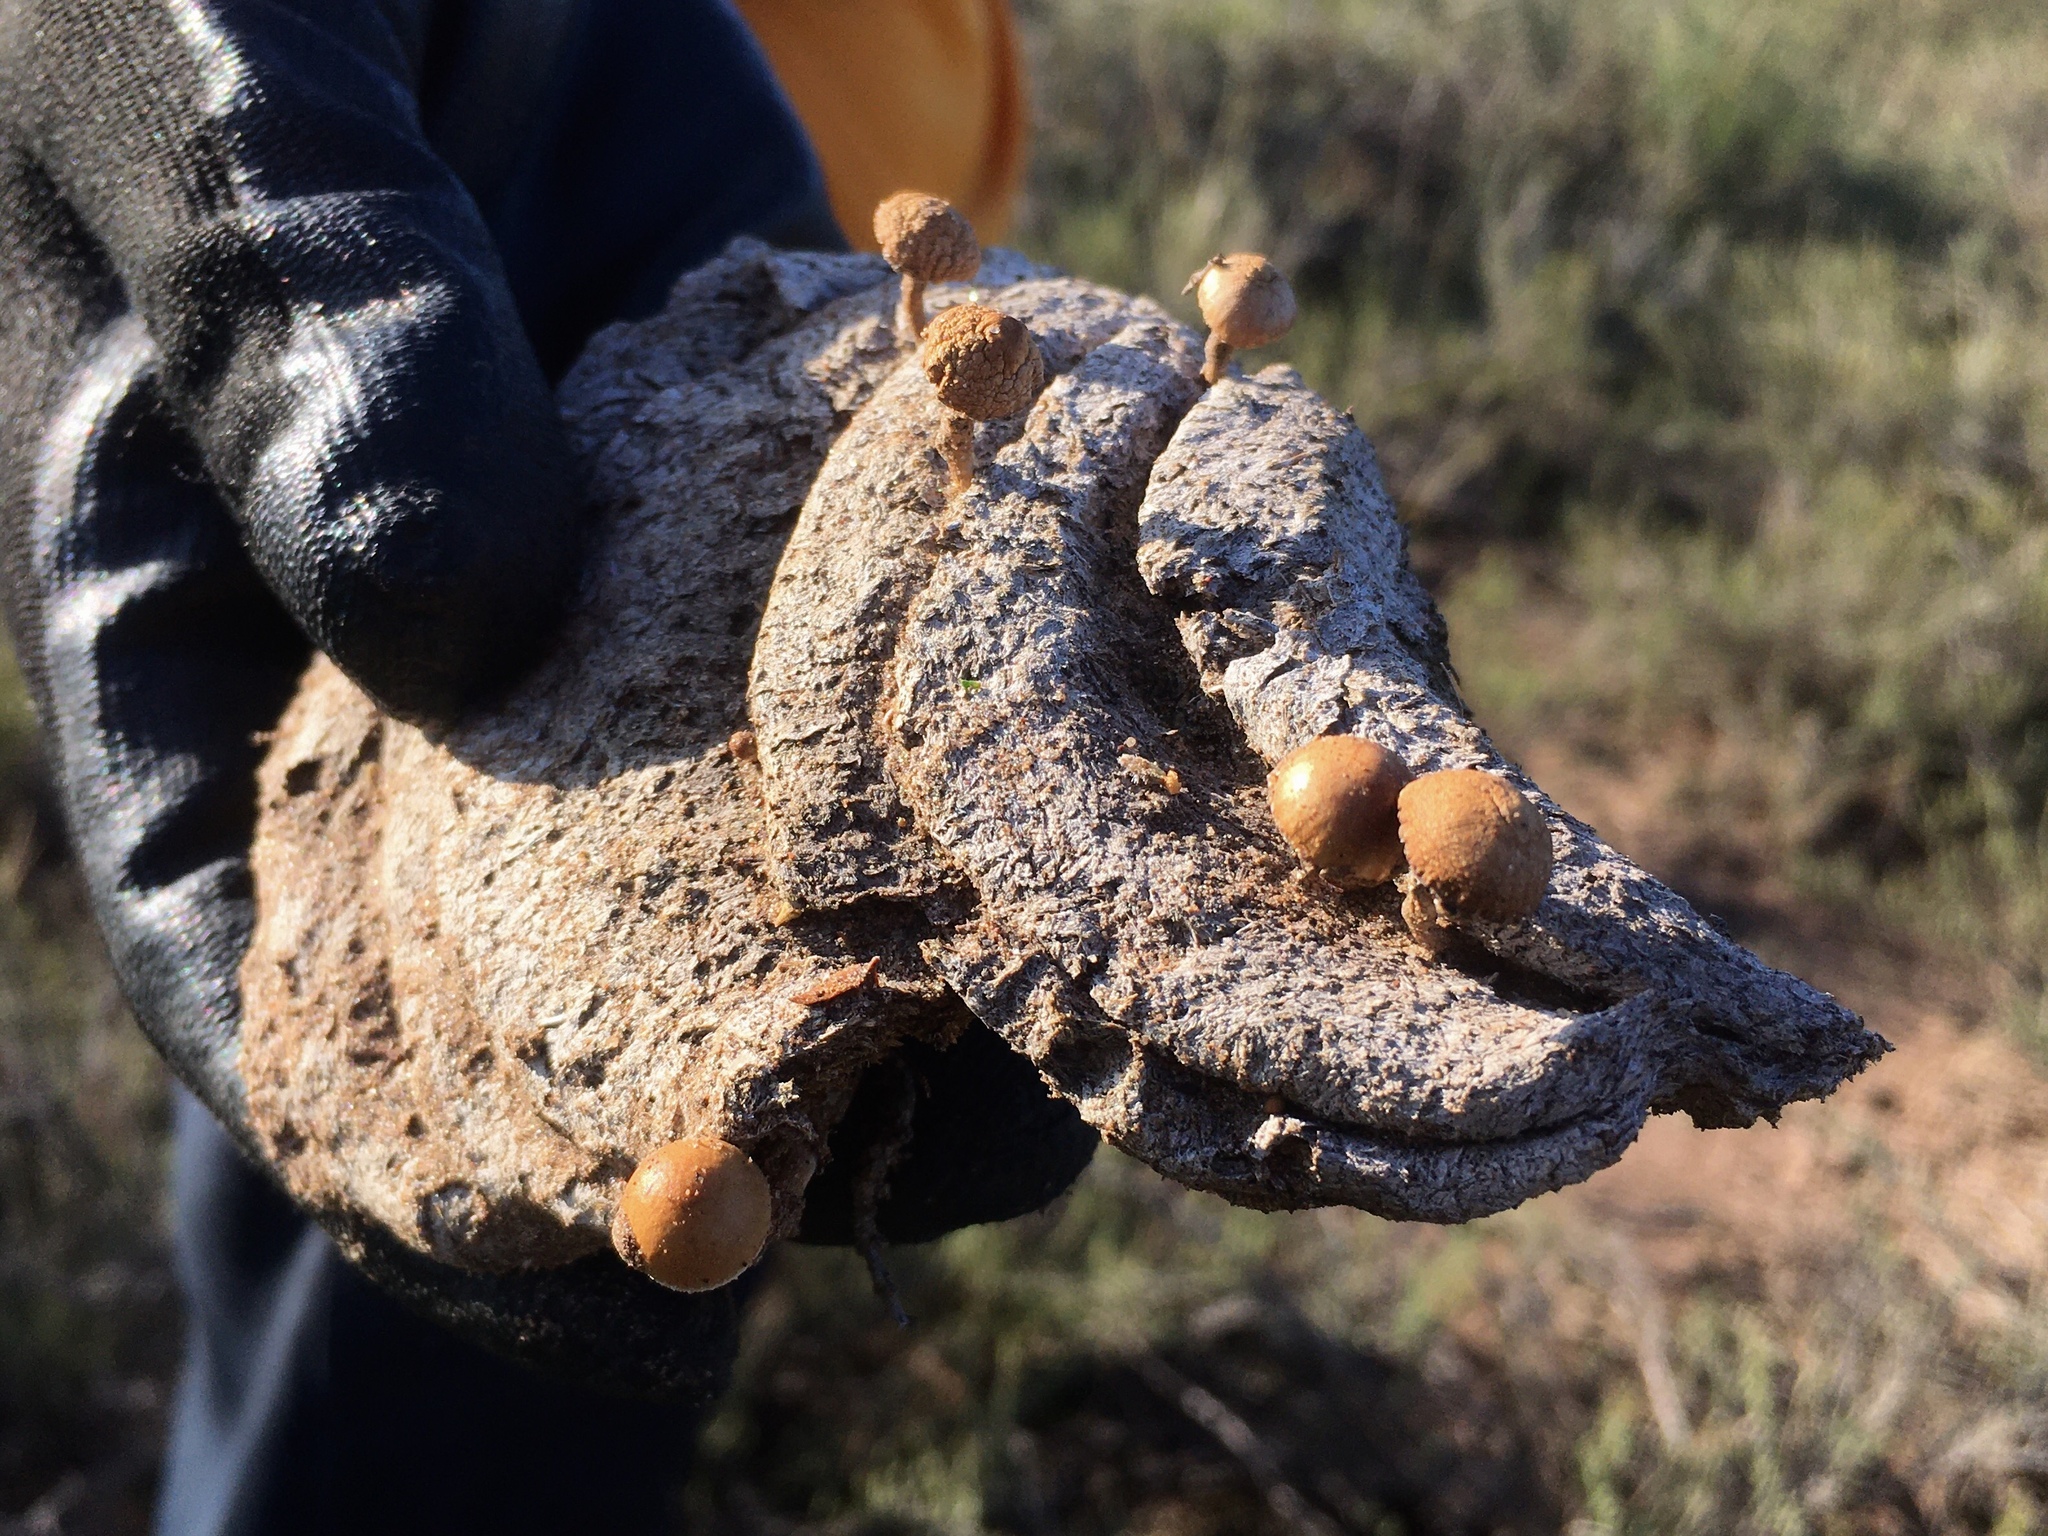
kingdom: Fungi
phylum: Basidiomycota
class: Agaricomycetes
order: Agaricales
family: Strophariaceae
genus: Deconica
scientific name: Deconica coprophila
